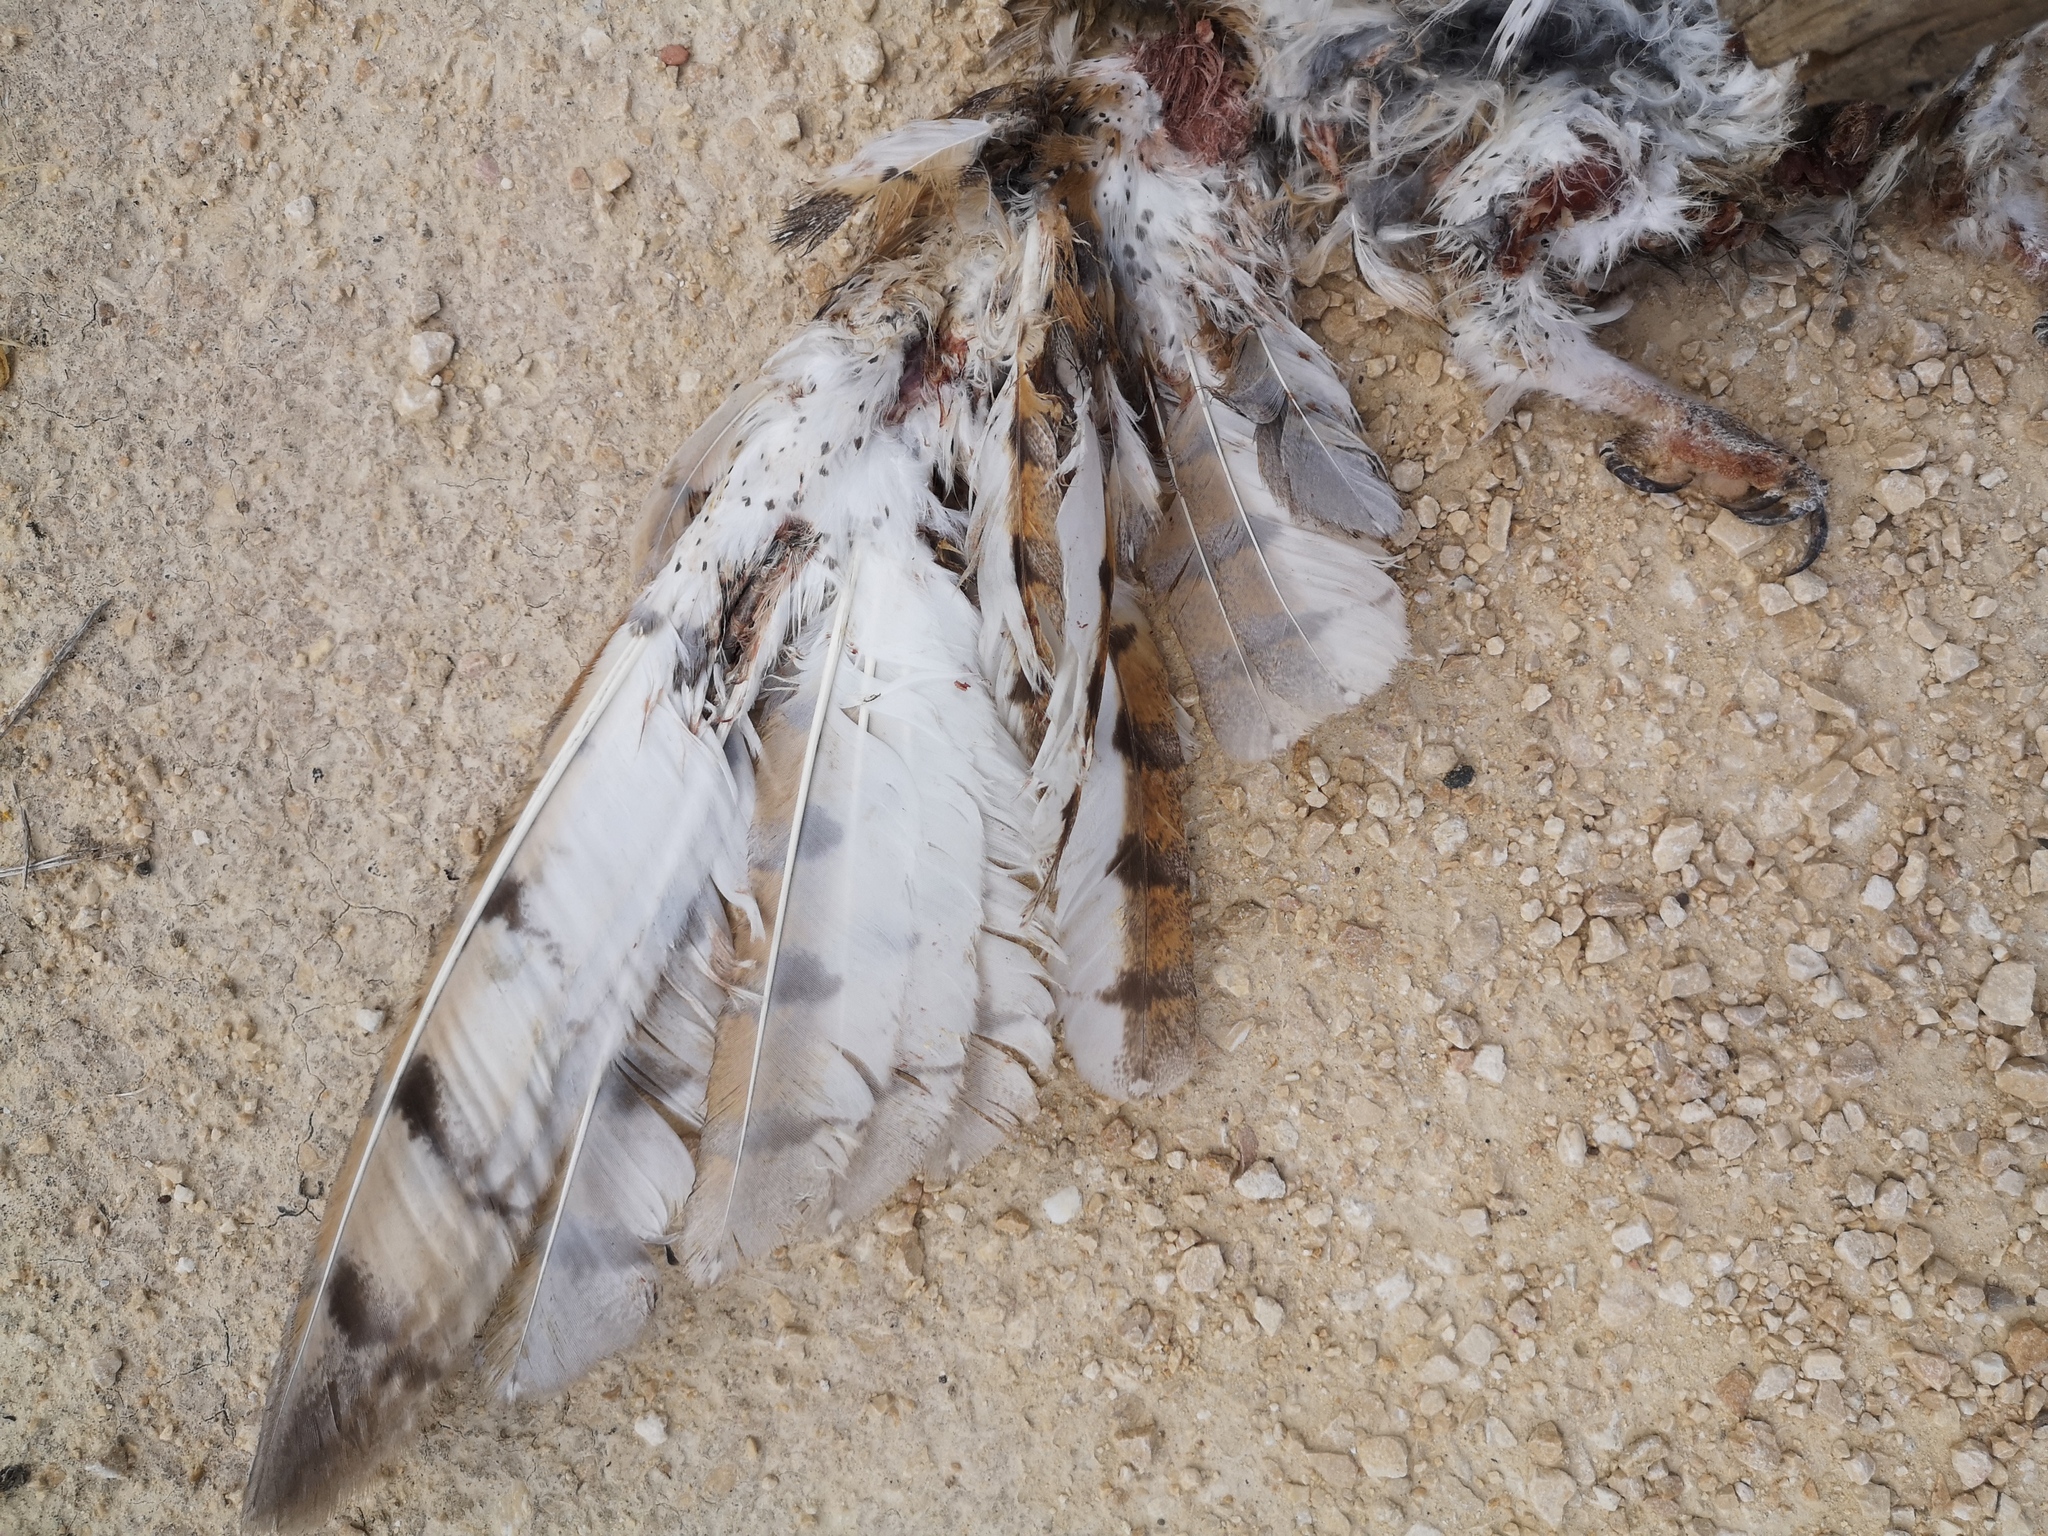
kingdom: Animalia
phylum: Chordata
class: Aves
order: Strigiformes
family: Tytonidae
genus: Tyto
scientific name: Tyto alba
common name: Barn owl
